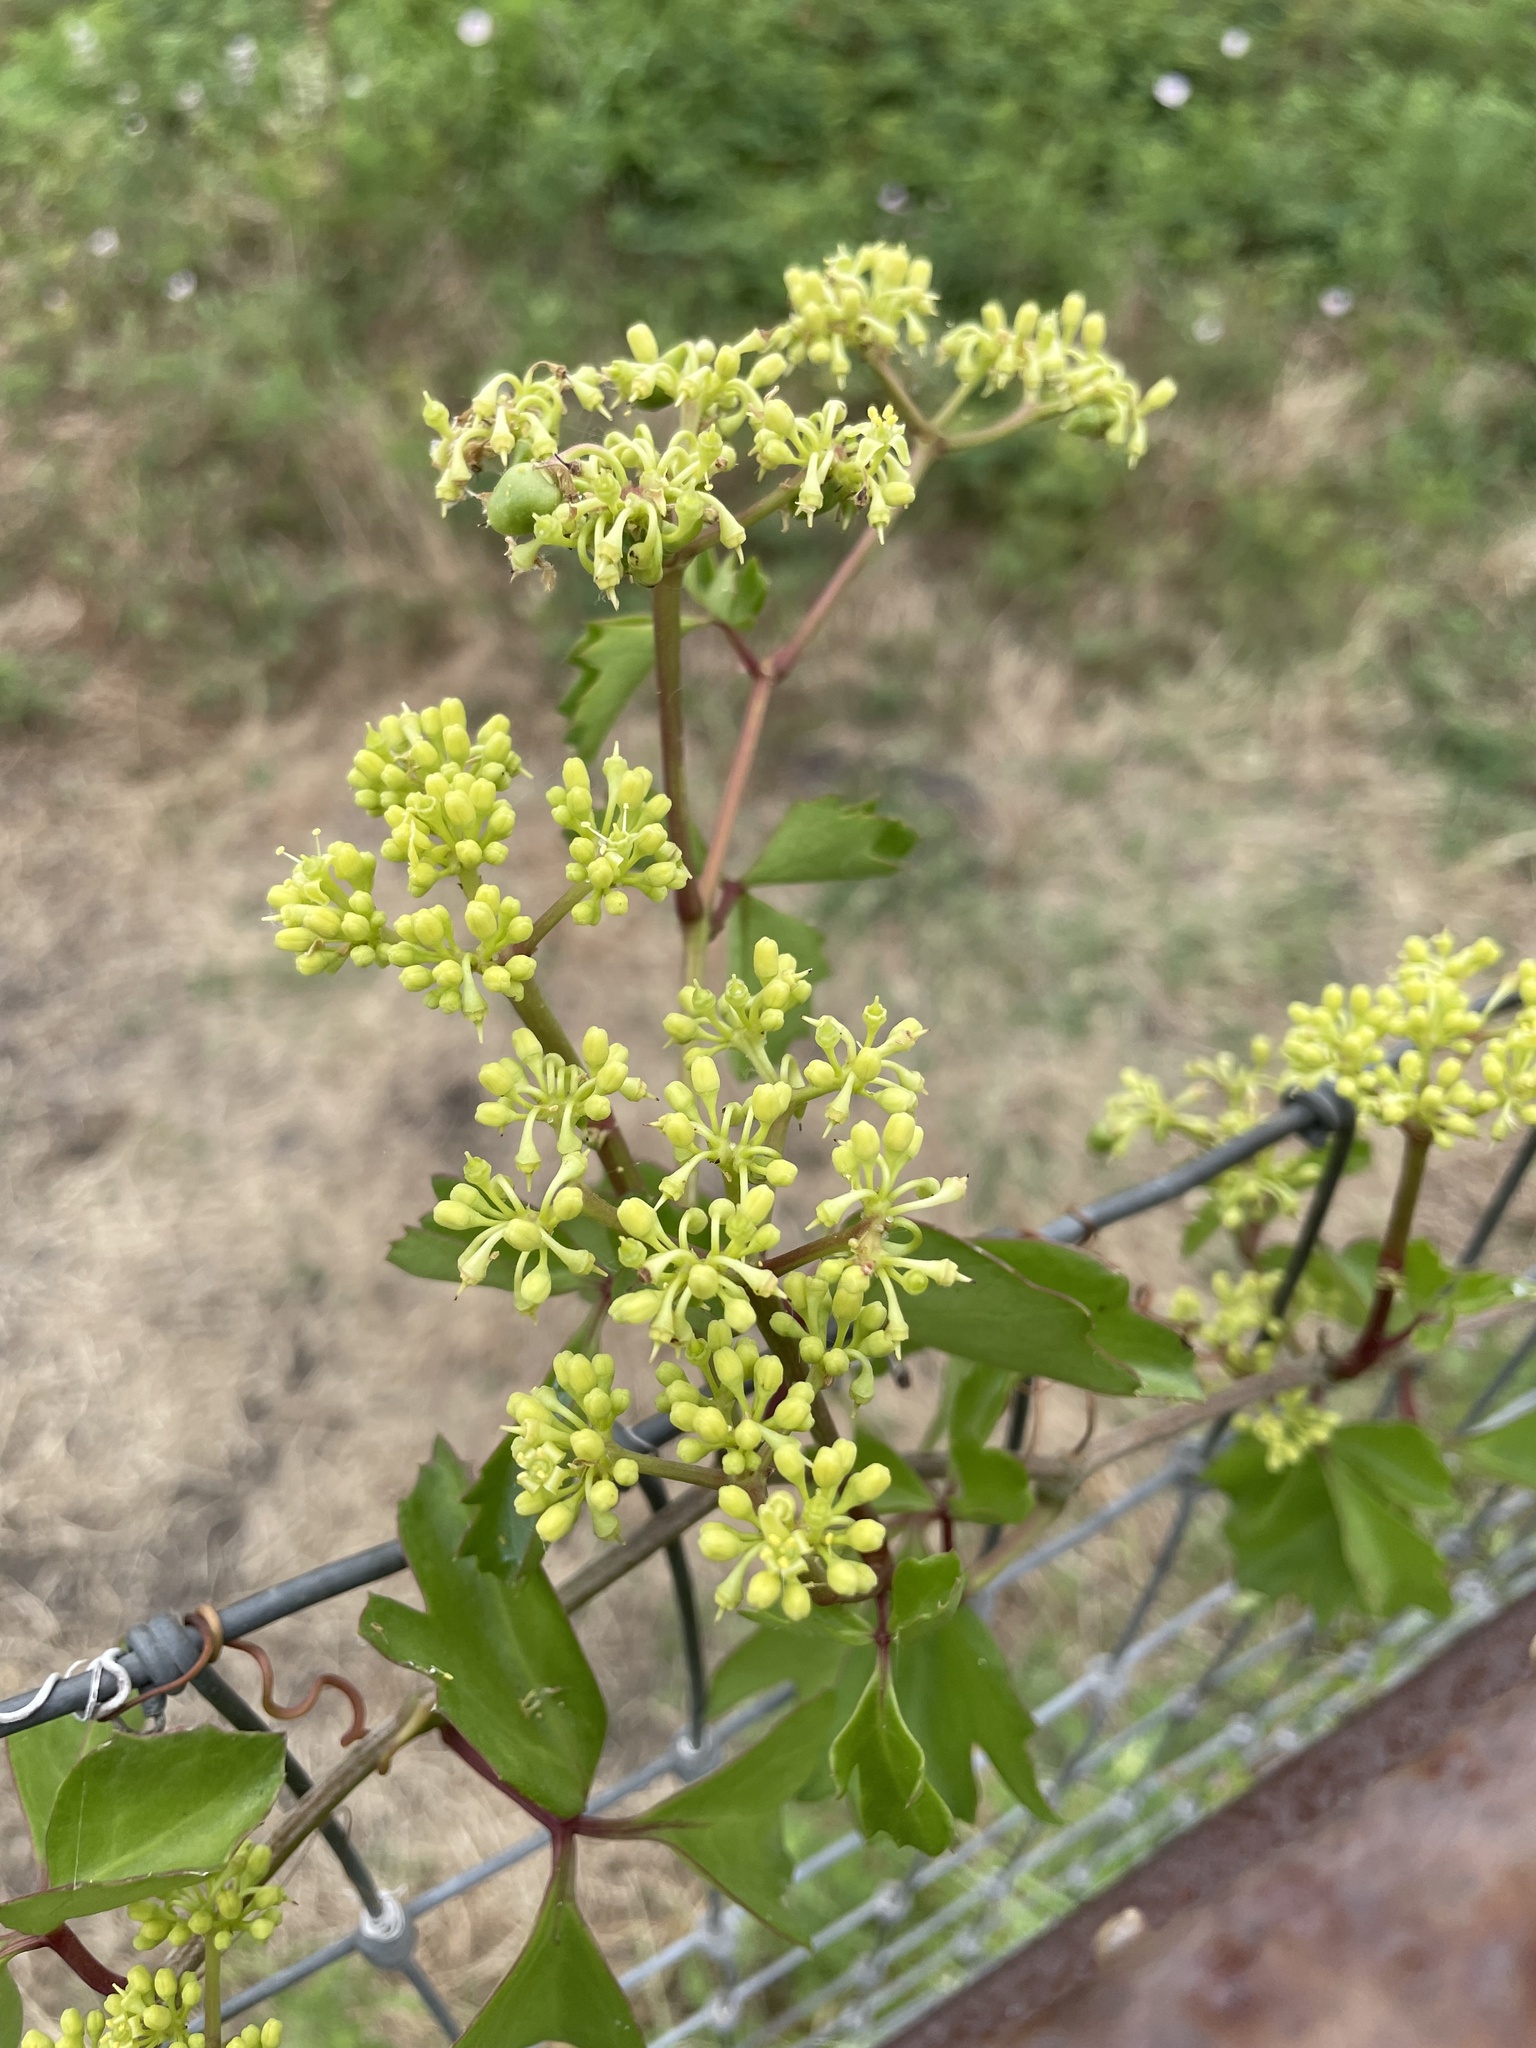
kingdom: Plantae
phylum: Tracheophyta
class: Magnoliopsida
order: Vitales
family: Vitaceae
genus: Cissus
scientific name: Cissus trifoliata
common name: Vine-sorrel
